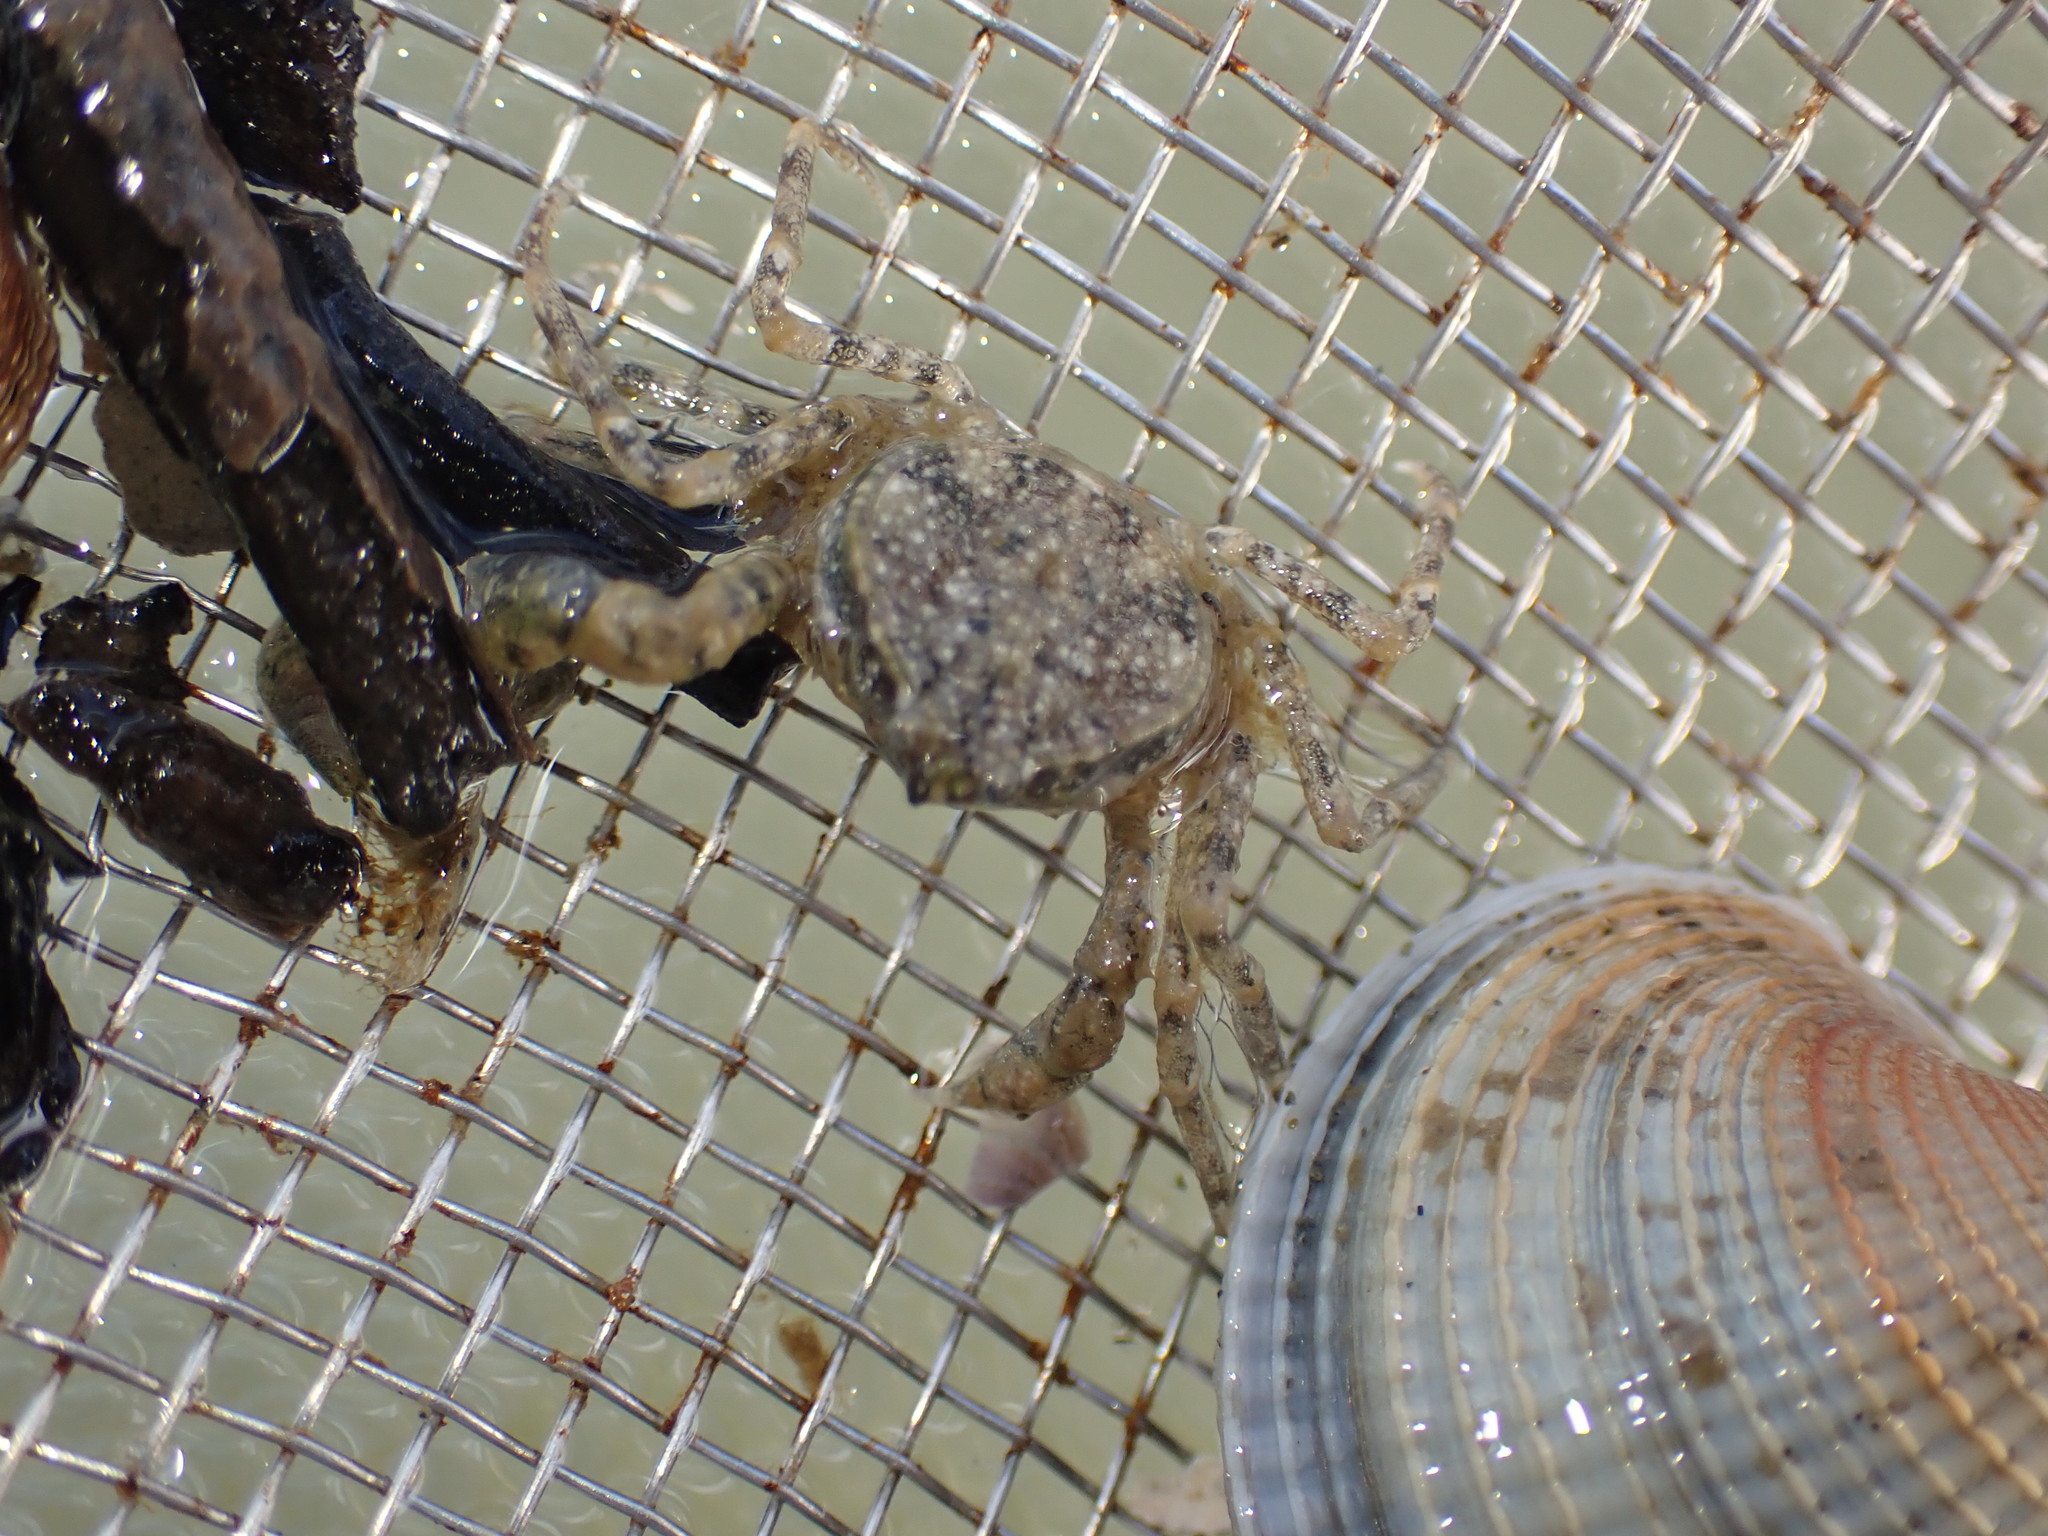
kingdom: Animalia
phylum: Arthropoda
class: Malacostraca
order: Decapoda
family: Hymenosomatidae
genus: Halicarcinus
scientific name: Halicarcinus whitei
